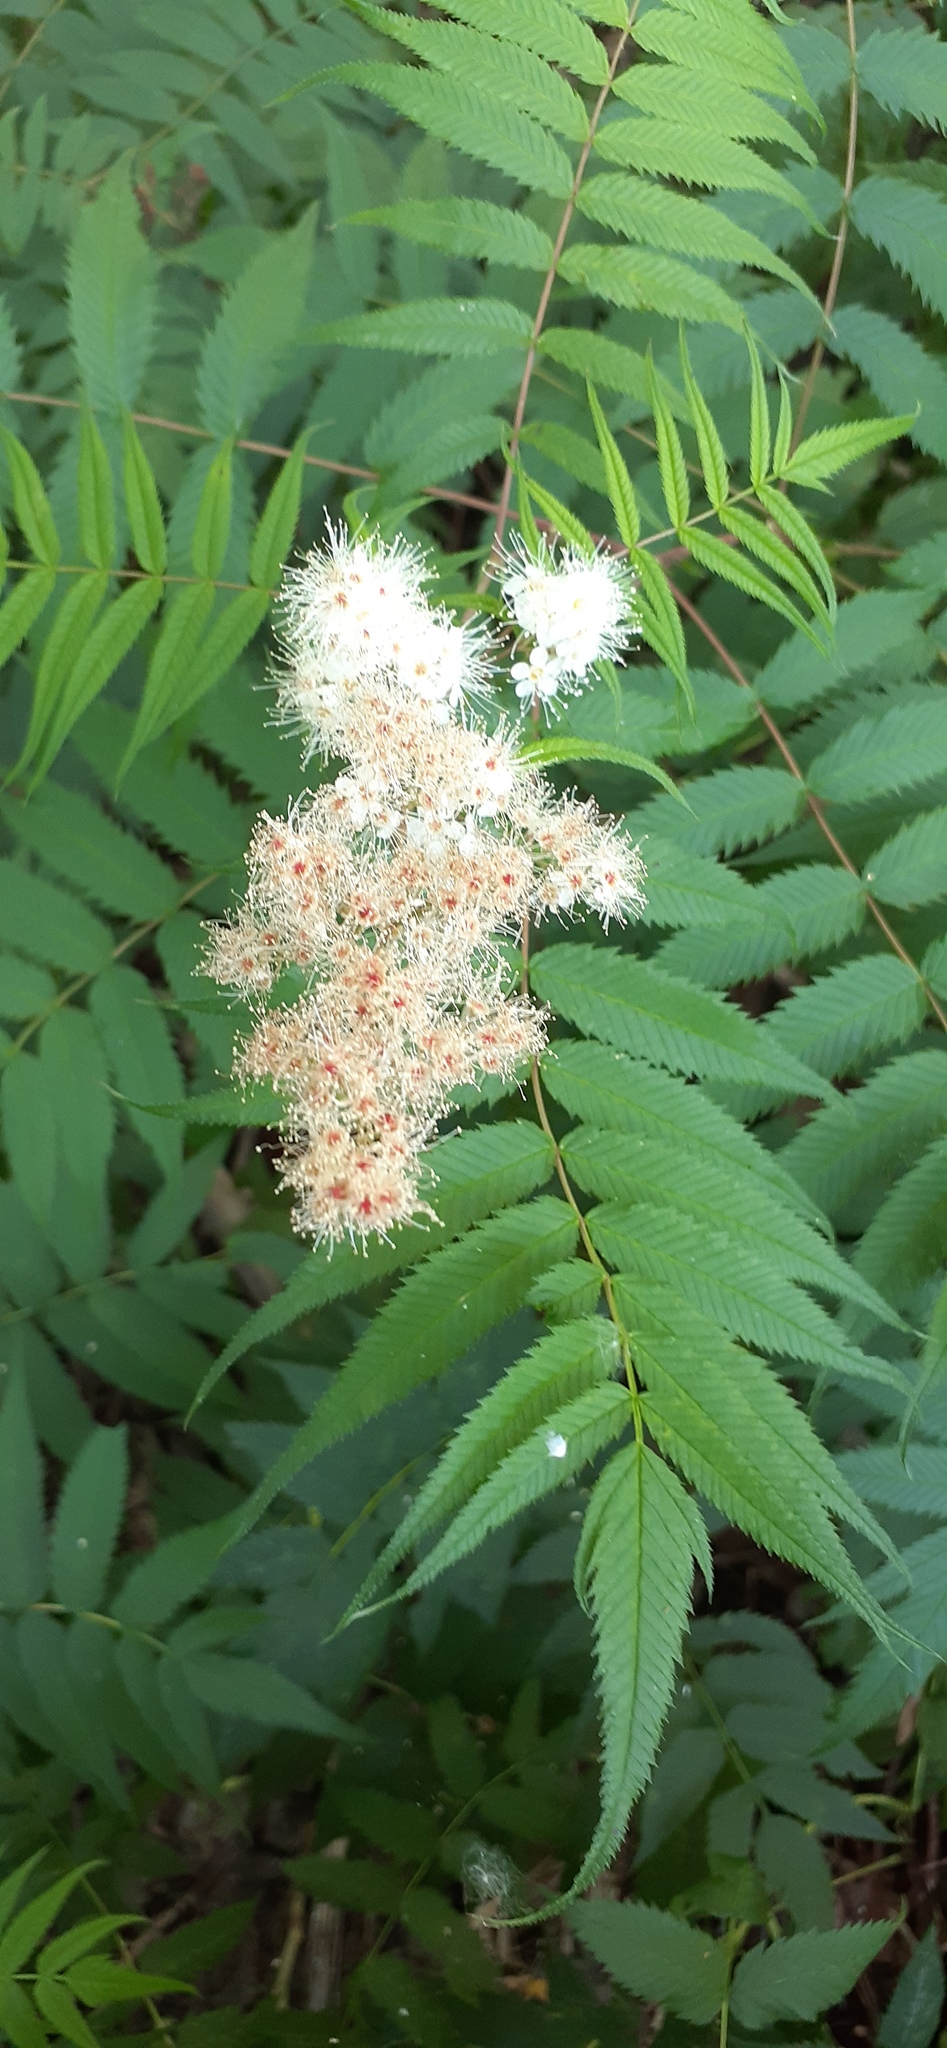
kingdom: Plantae
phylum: Tracheophyta
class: Magnoliopsida
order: Rosales
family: Rosaceae
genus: Sorbaria
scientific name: Sorbaria sorbifolia
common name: False spiraea
